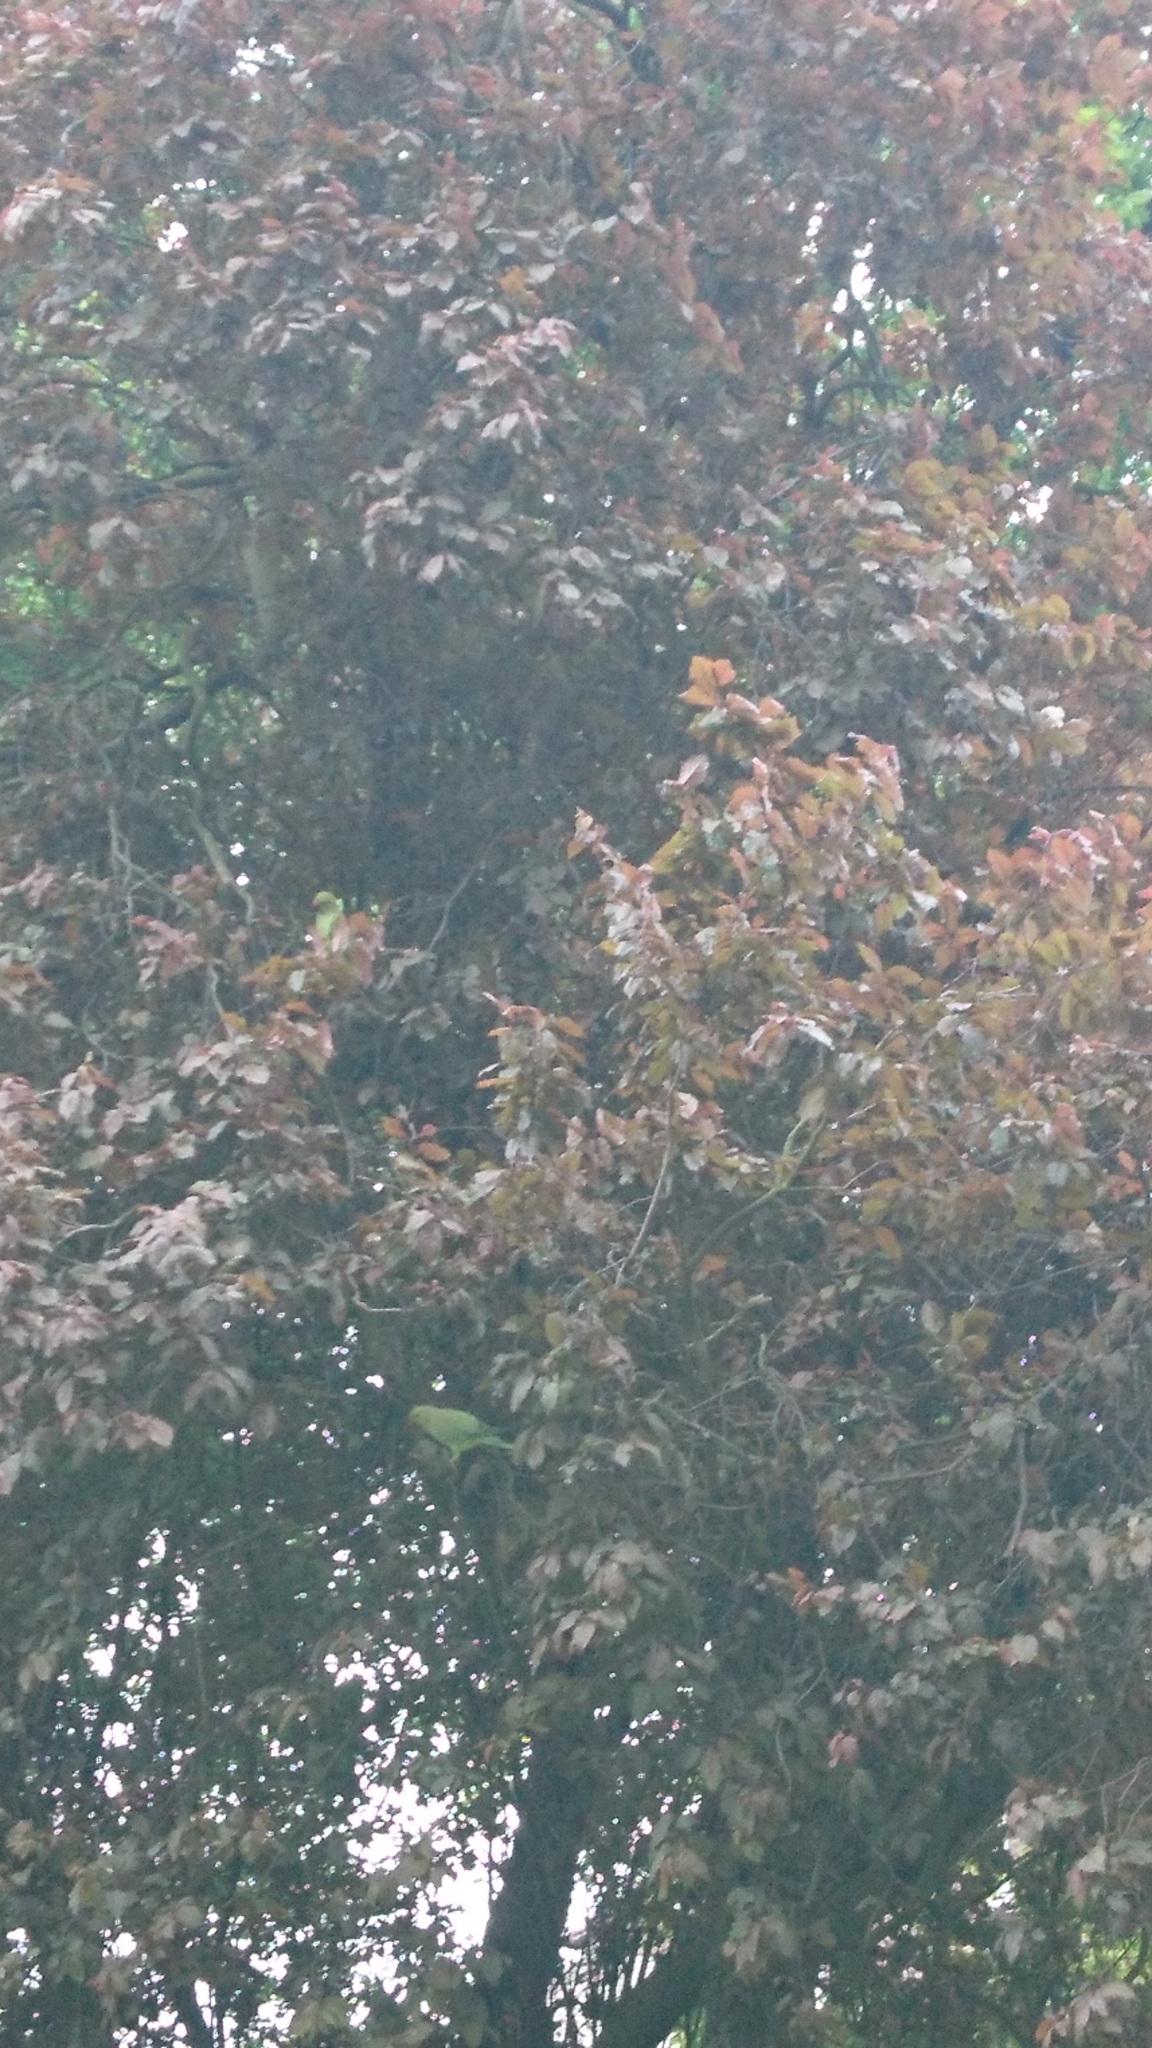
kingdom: Animalia
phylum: Chordata
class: Aves
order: Psittaciformes
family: Psittacidae
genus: Psittacula
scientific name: Psittacula krameri
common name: Rose-ringed parakeet
